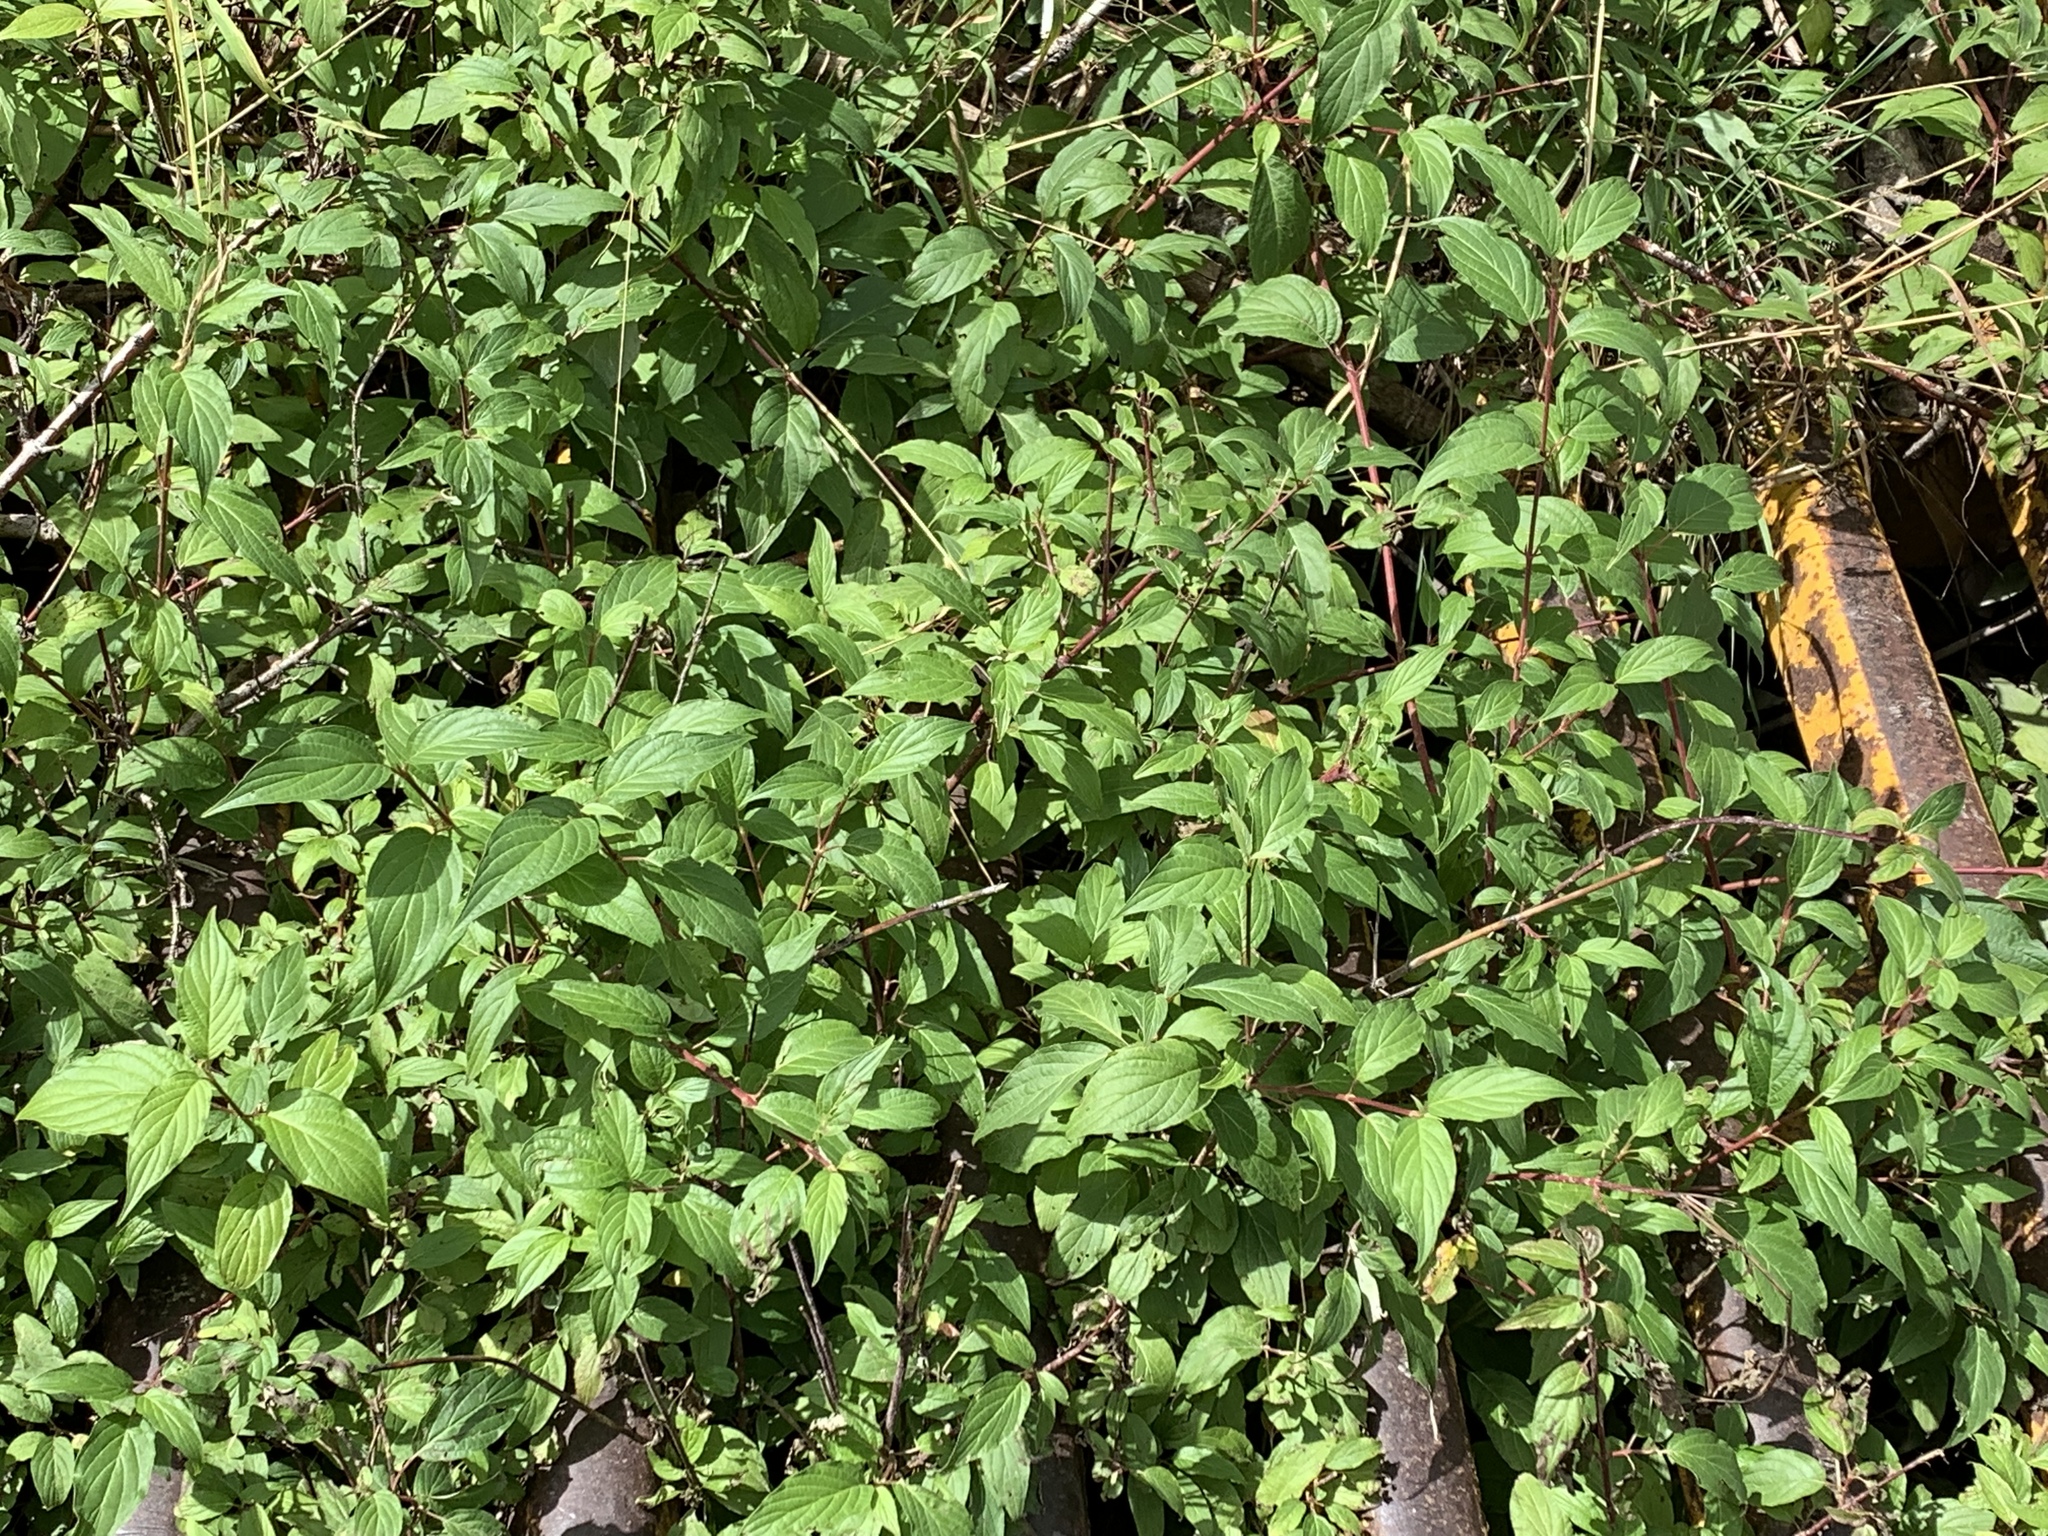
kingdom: Plantae
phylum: Tracheophyta
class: Magnoliopsida
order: Cornales
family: Cornaceae
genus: Cornus
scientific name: Cornus sericea
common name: Red-osier dogwood
